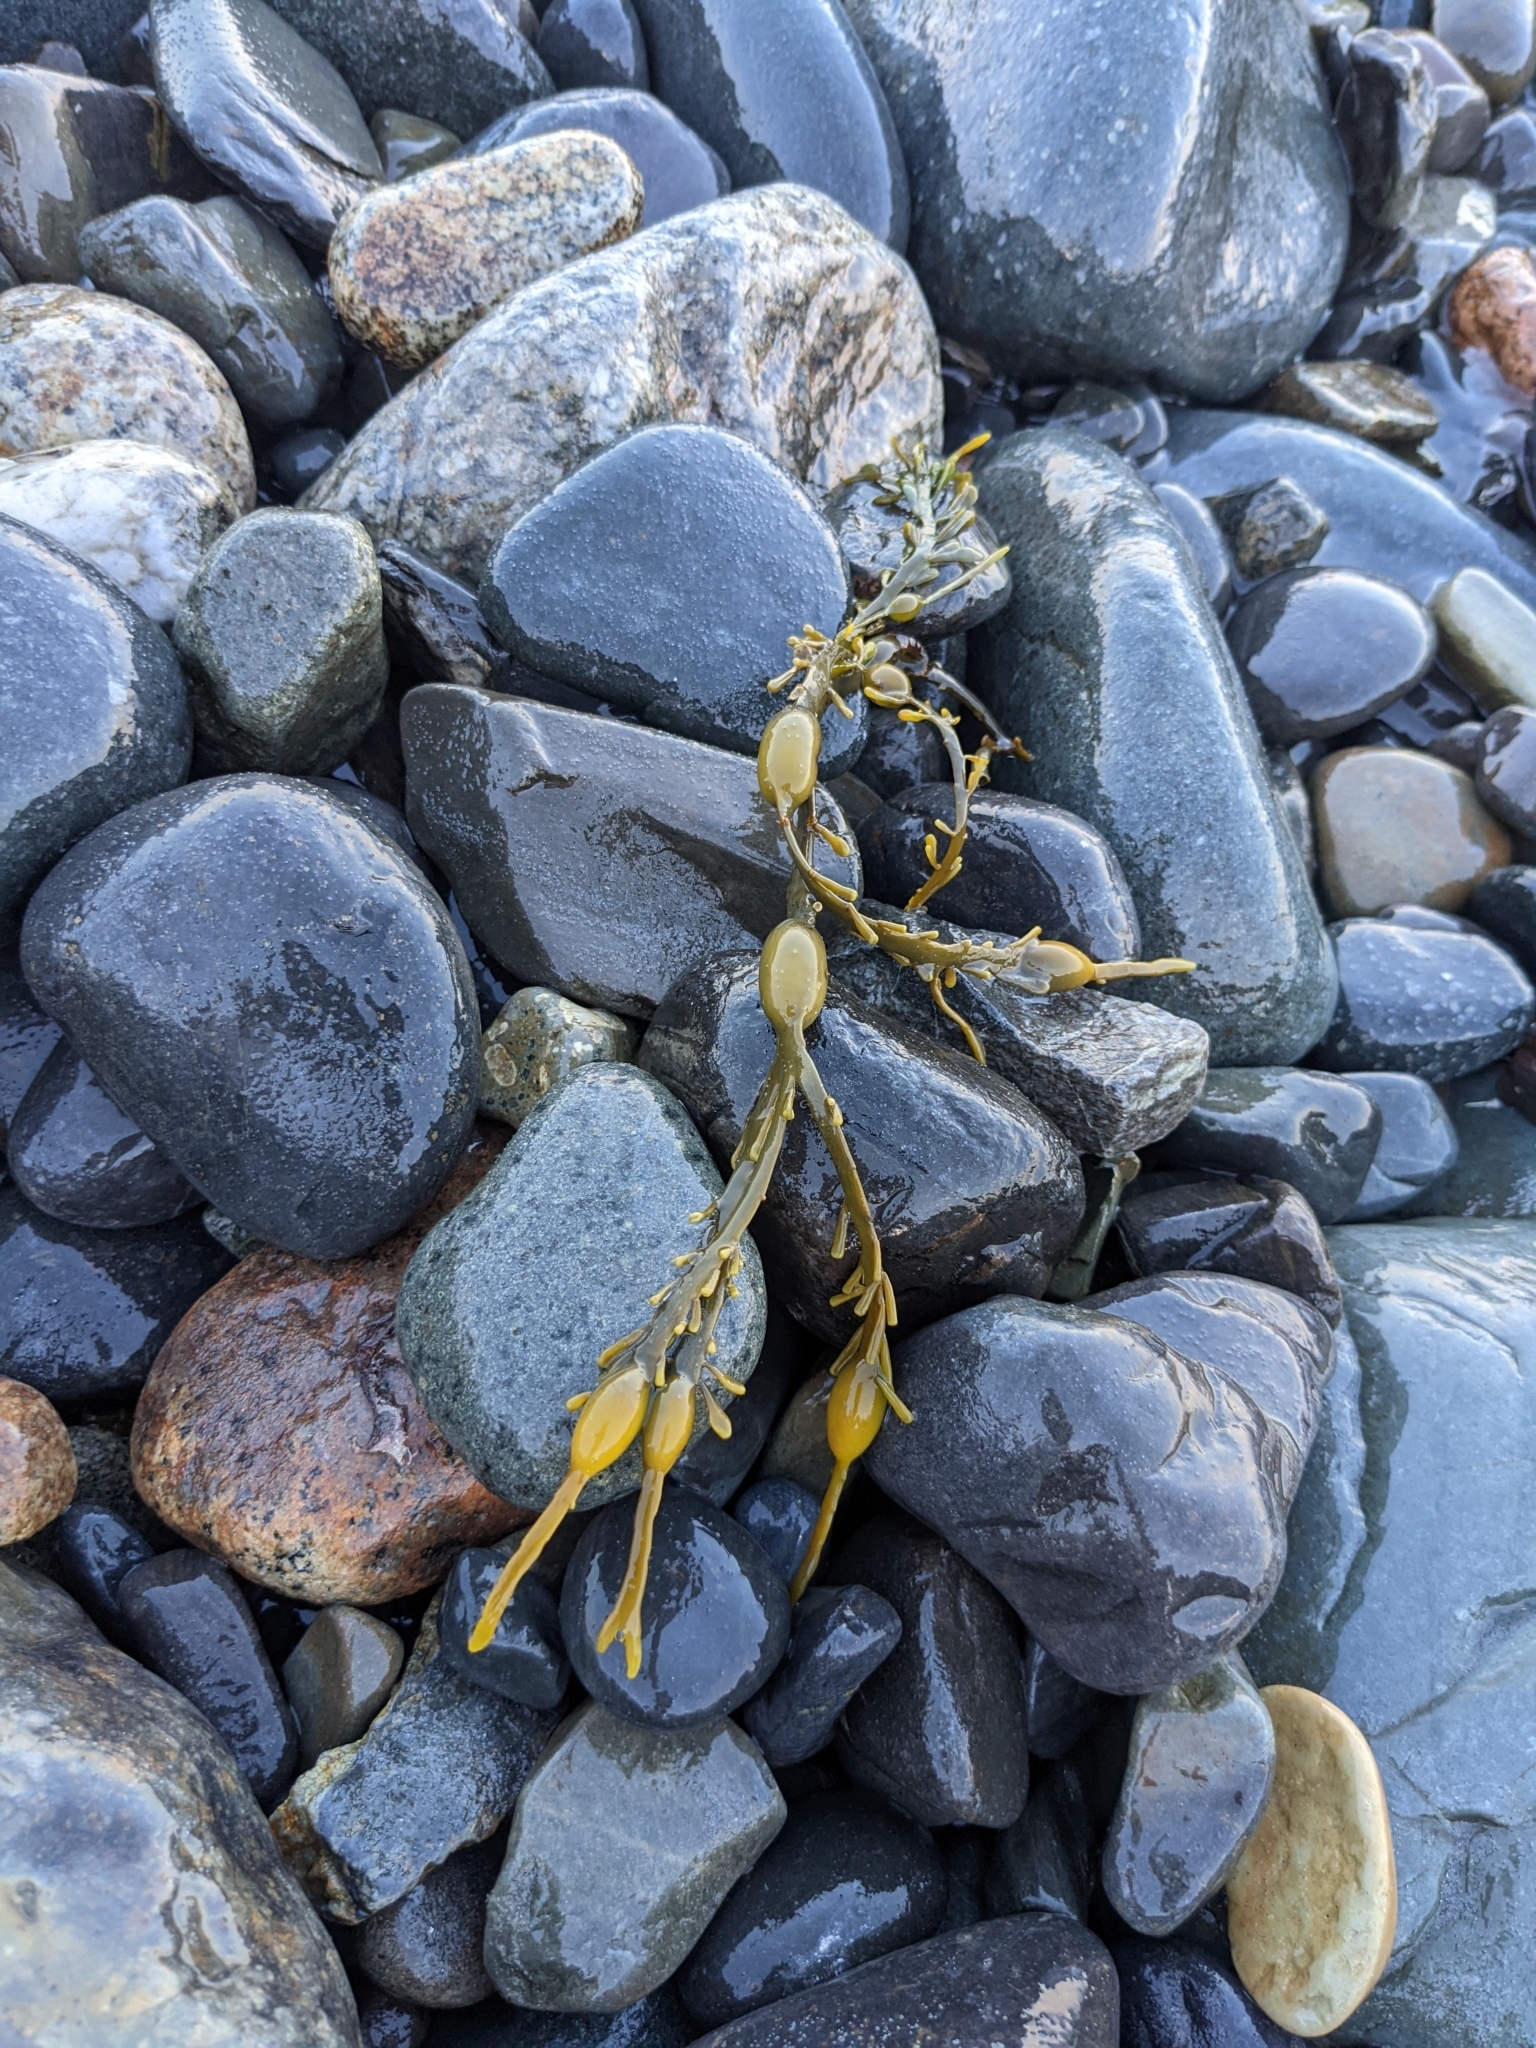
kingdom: Chromista
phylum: Ochrophyta
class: Phaeophyceae
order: Fucales
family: Fucaceae
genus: Ascophyllum
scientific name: Ascophyllum nodosum
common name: Knotted wrack
